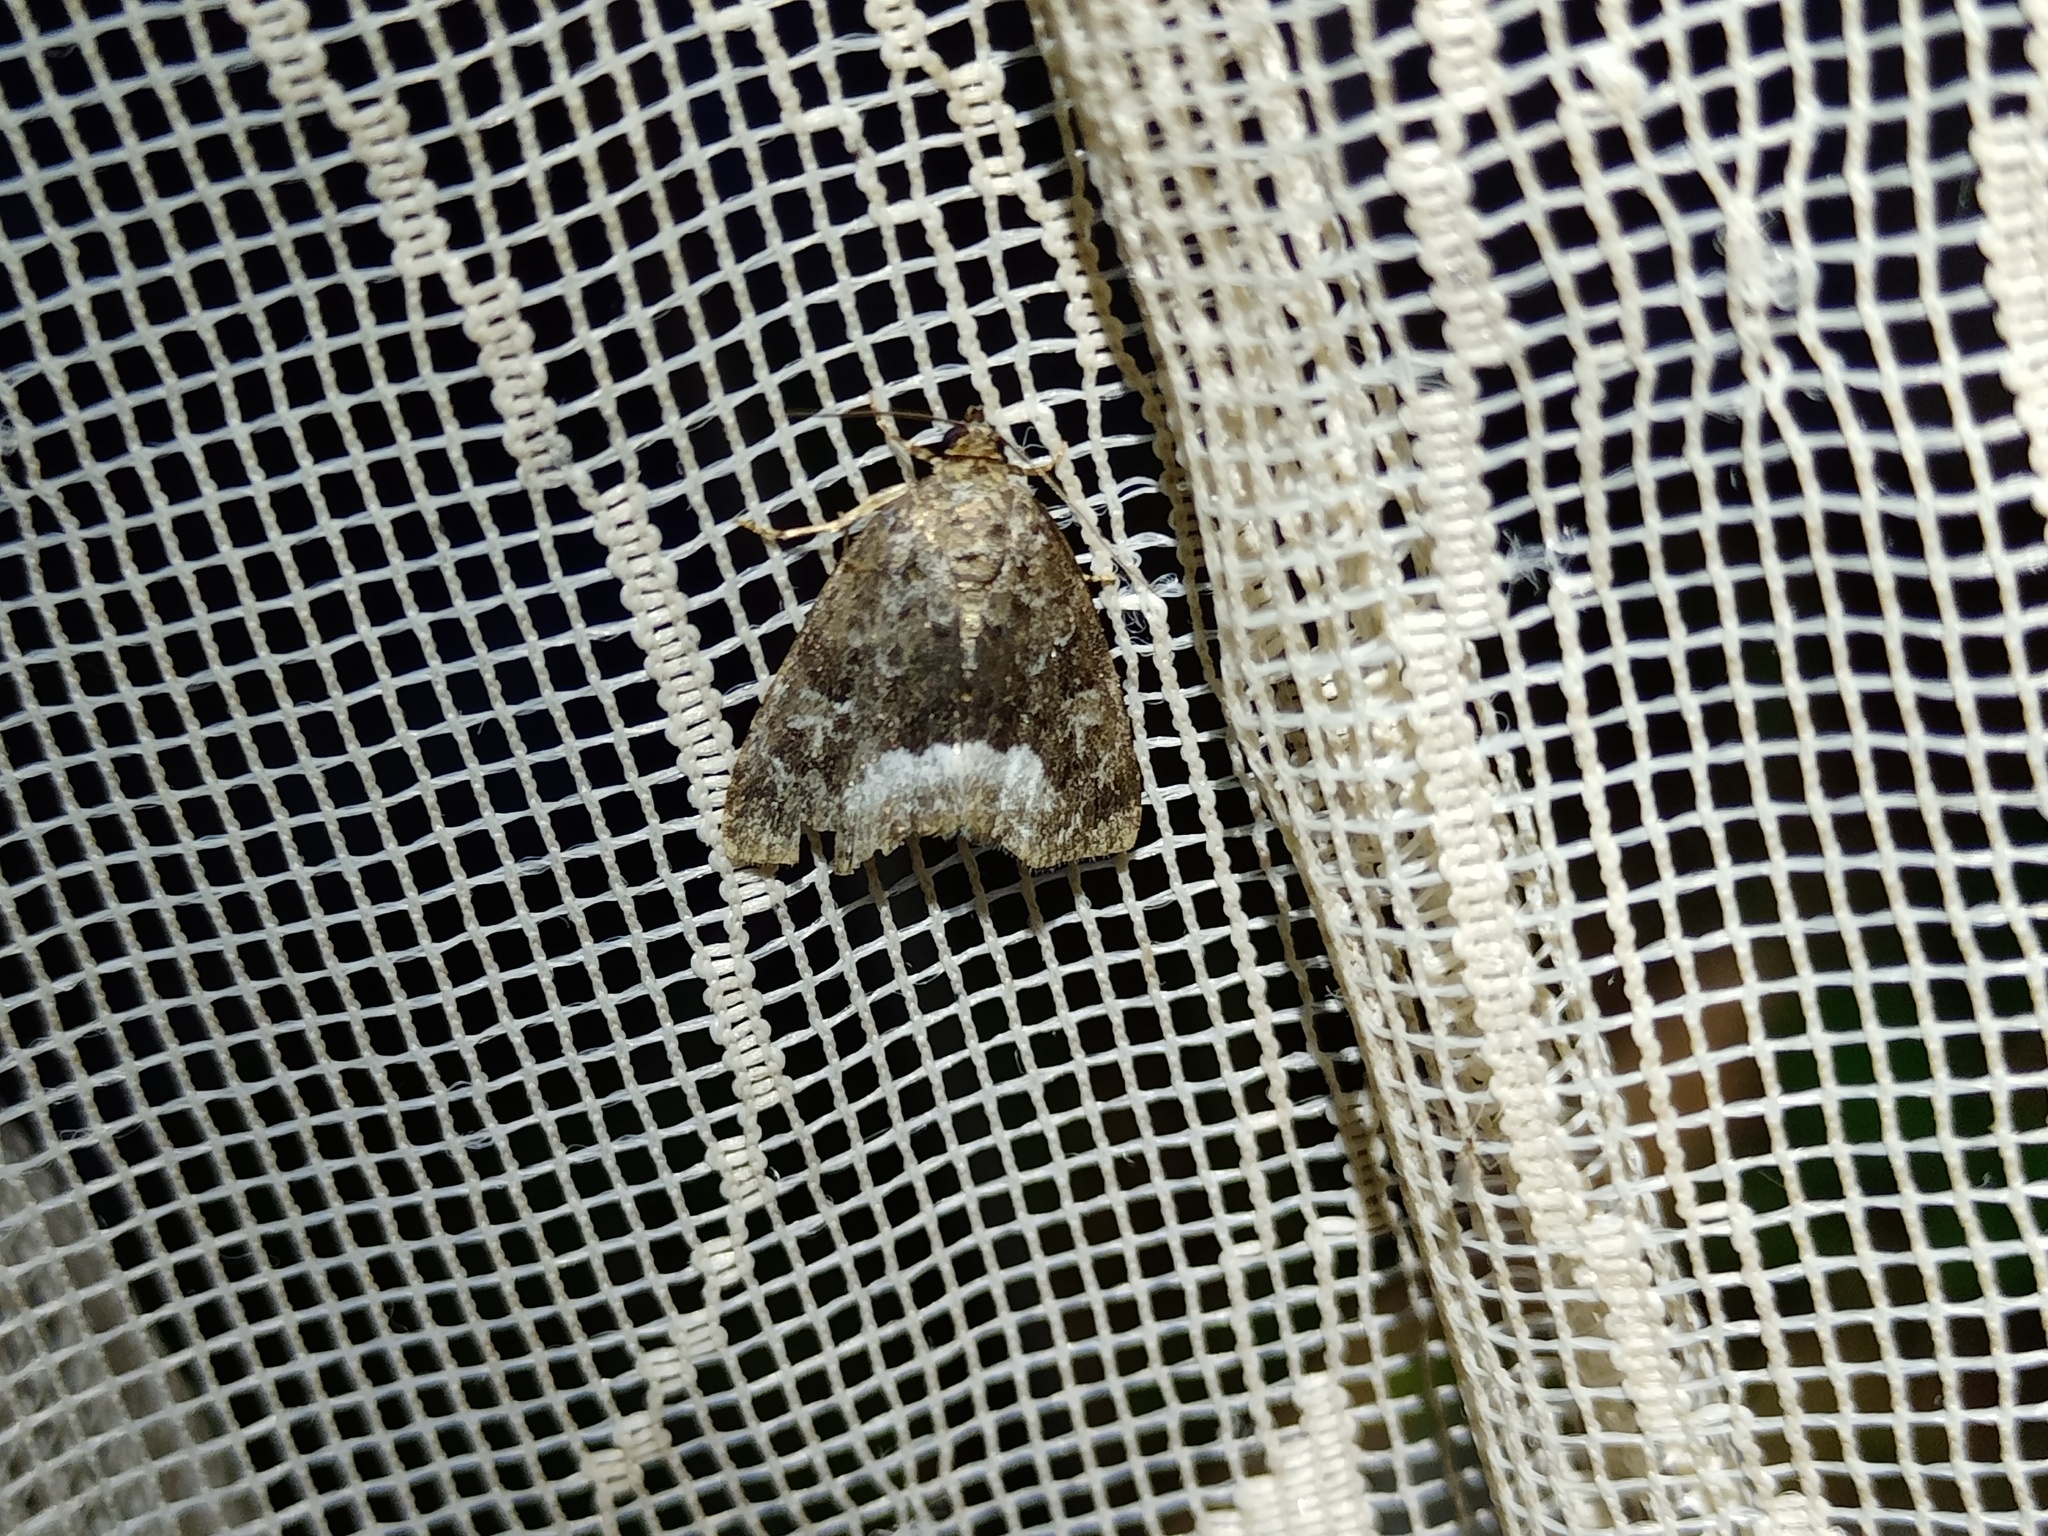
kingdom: Animalia
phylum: Arthropoda
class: Insecta
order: Lepidoptera
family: Noctuidae
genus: Deltote
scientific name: Deltote pygarga
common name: Marbled white spot
